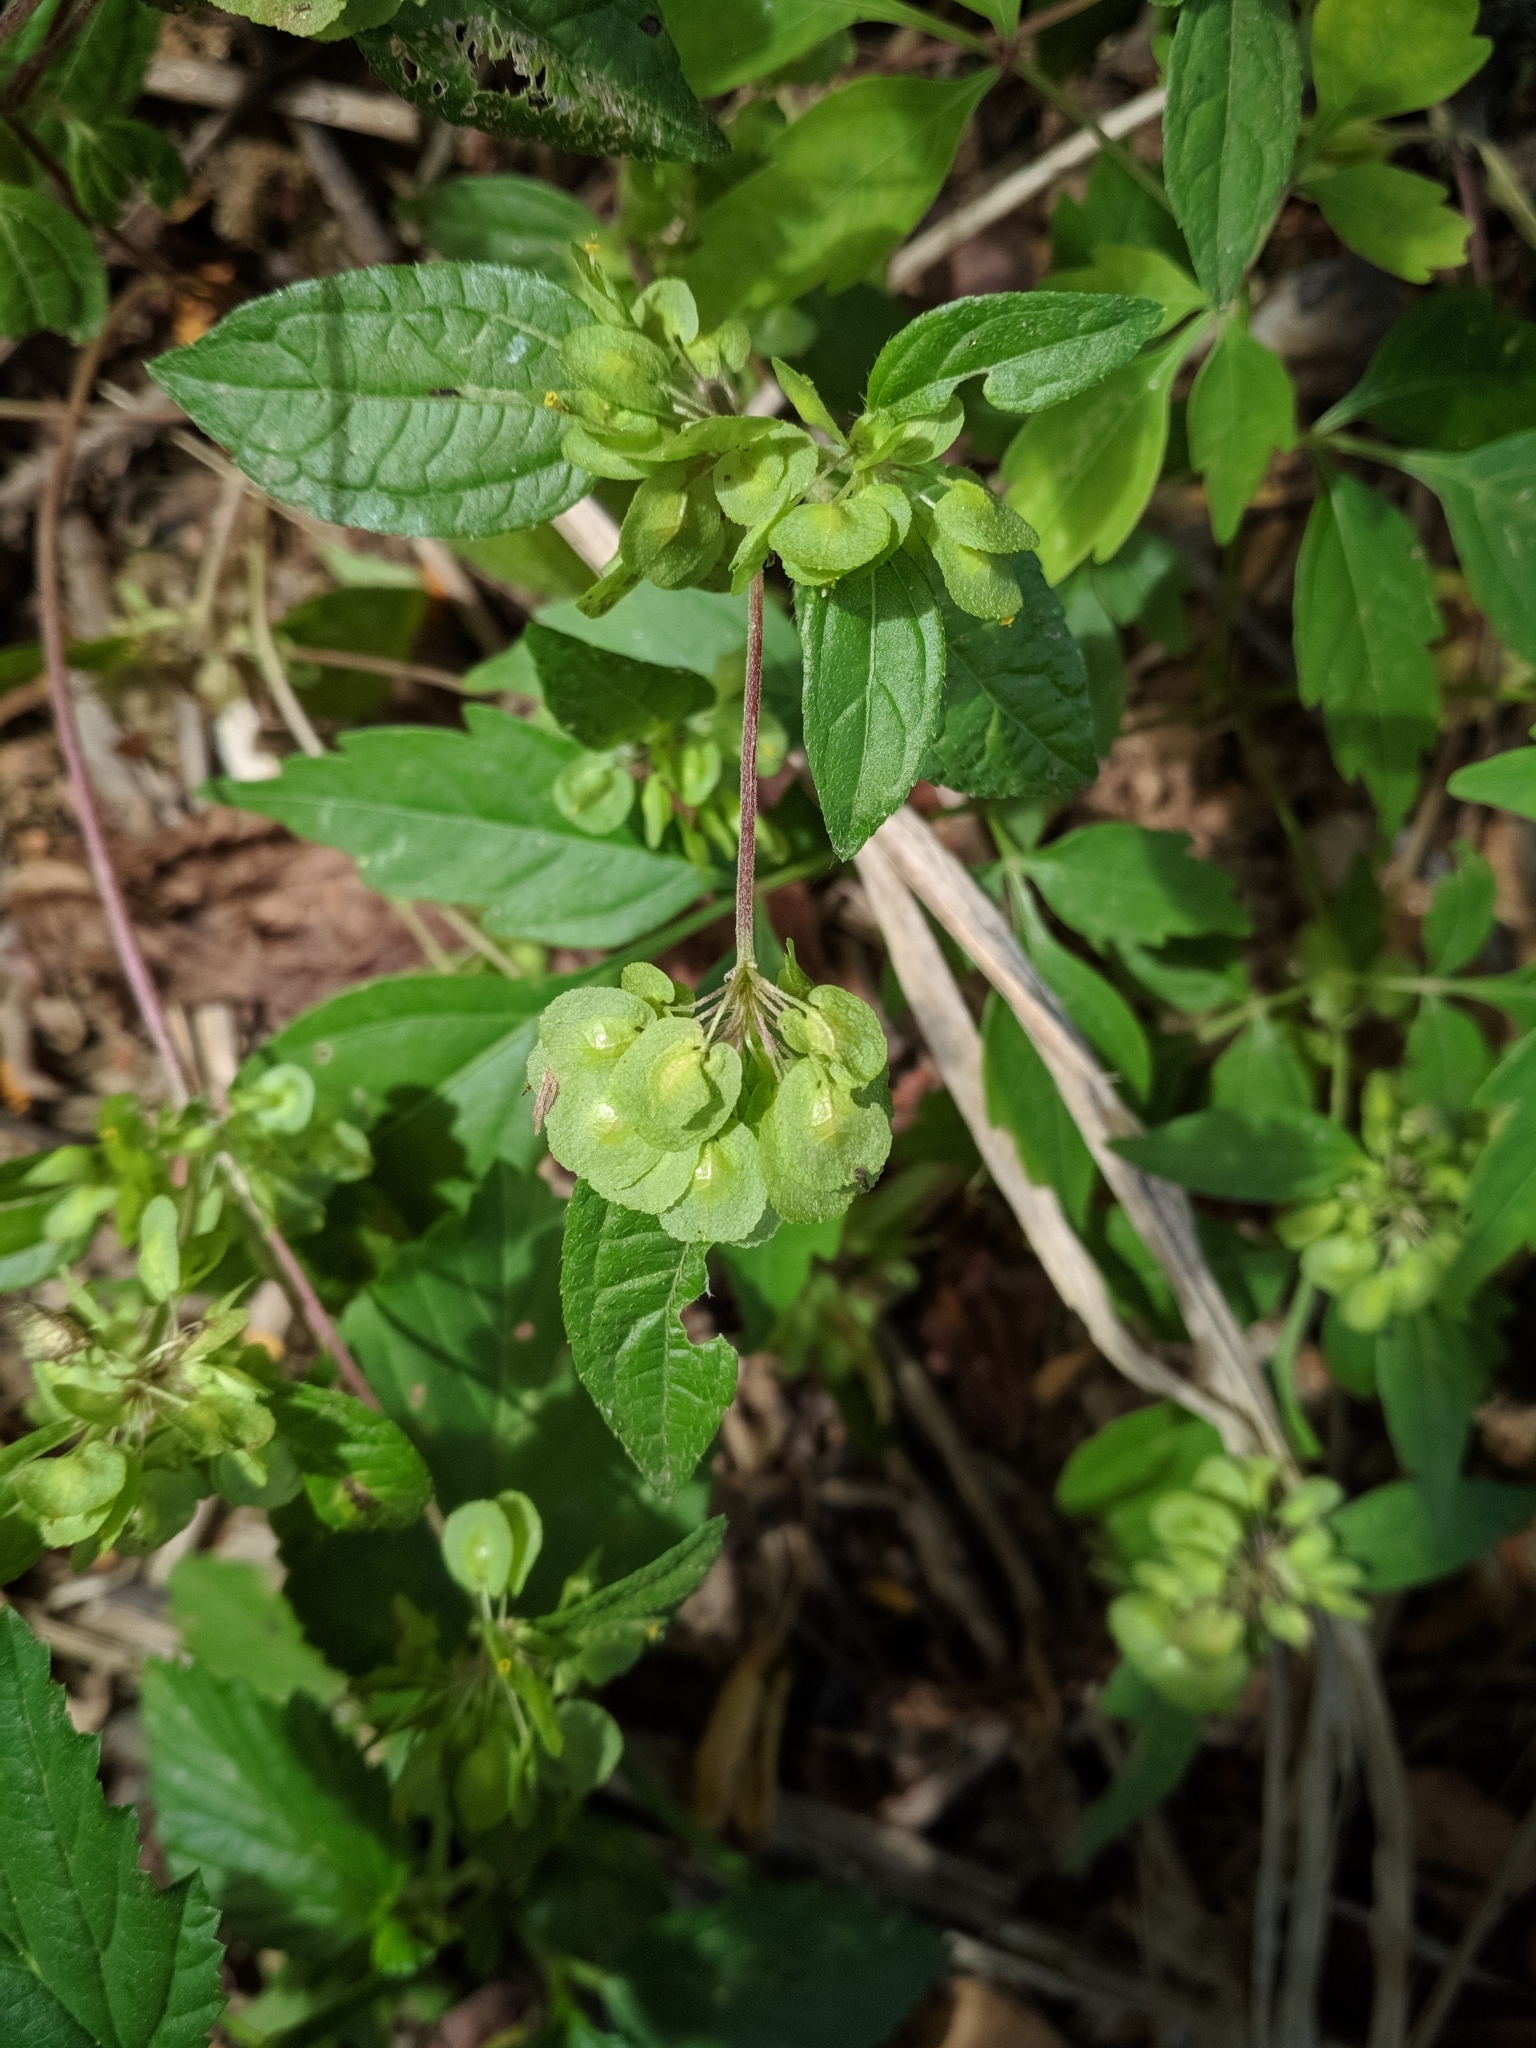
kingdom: Plantae
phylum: Tracheophyta
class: Magnoliopsida
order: Asterales
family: Asteraceae
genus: Delilia
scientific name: Delilia biflora
